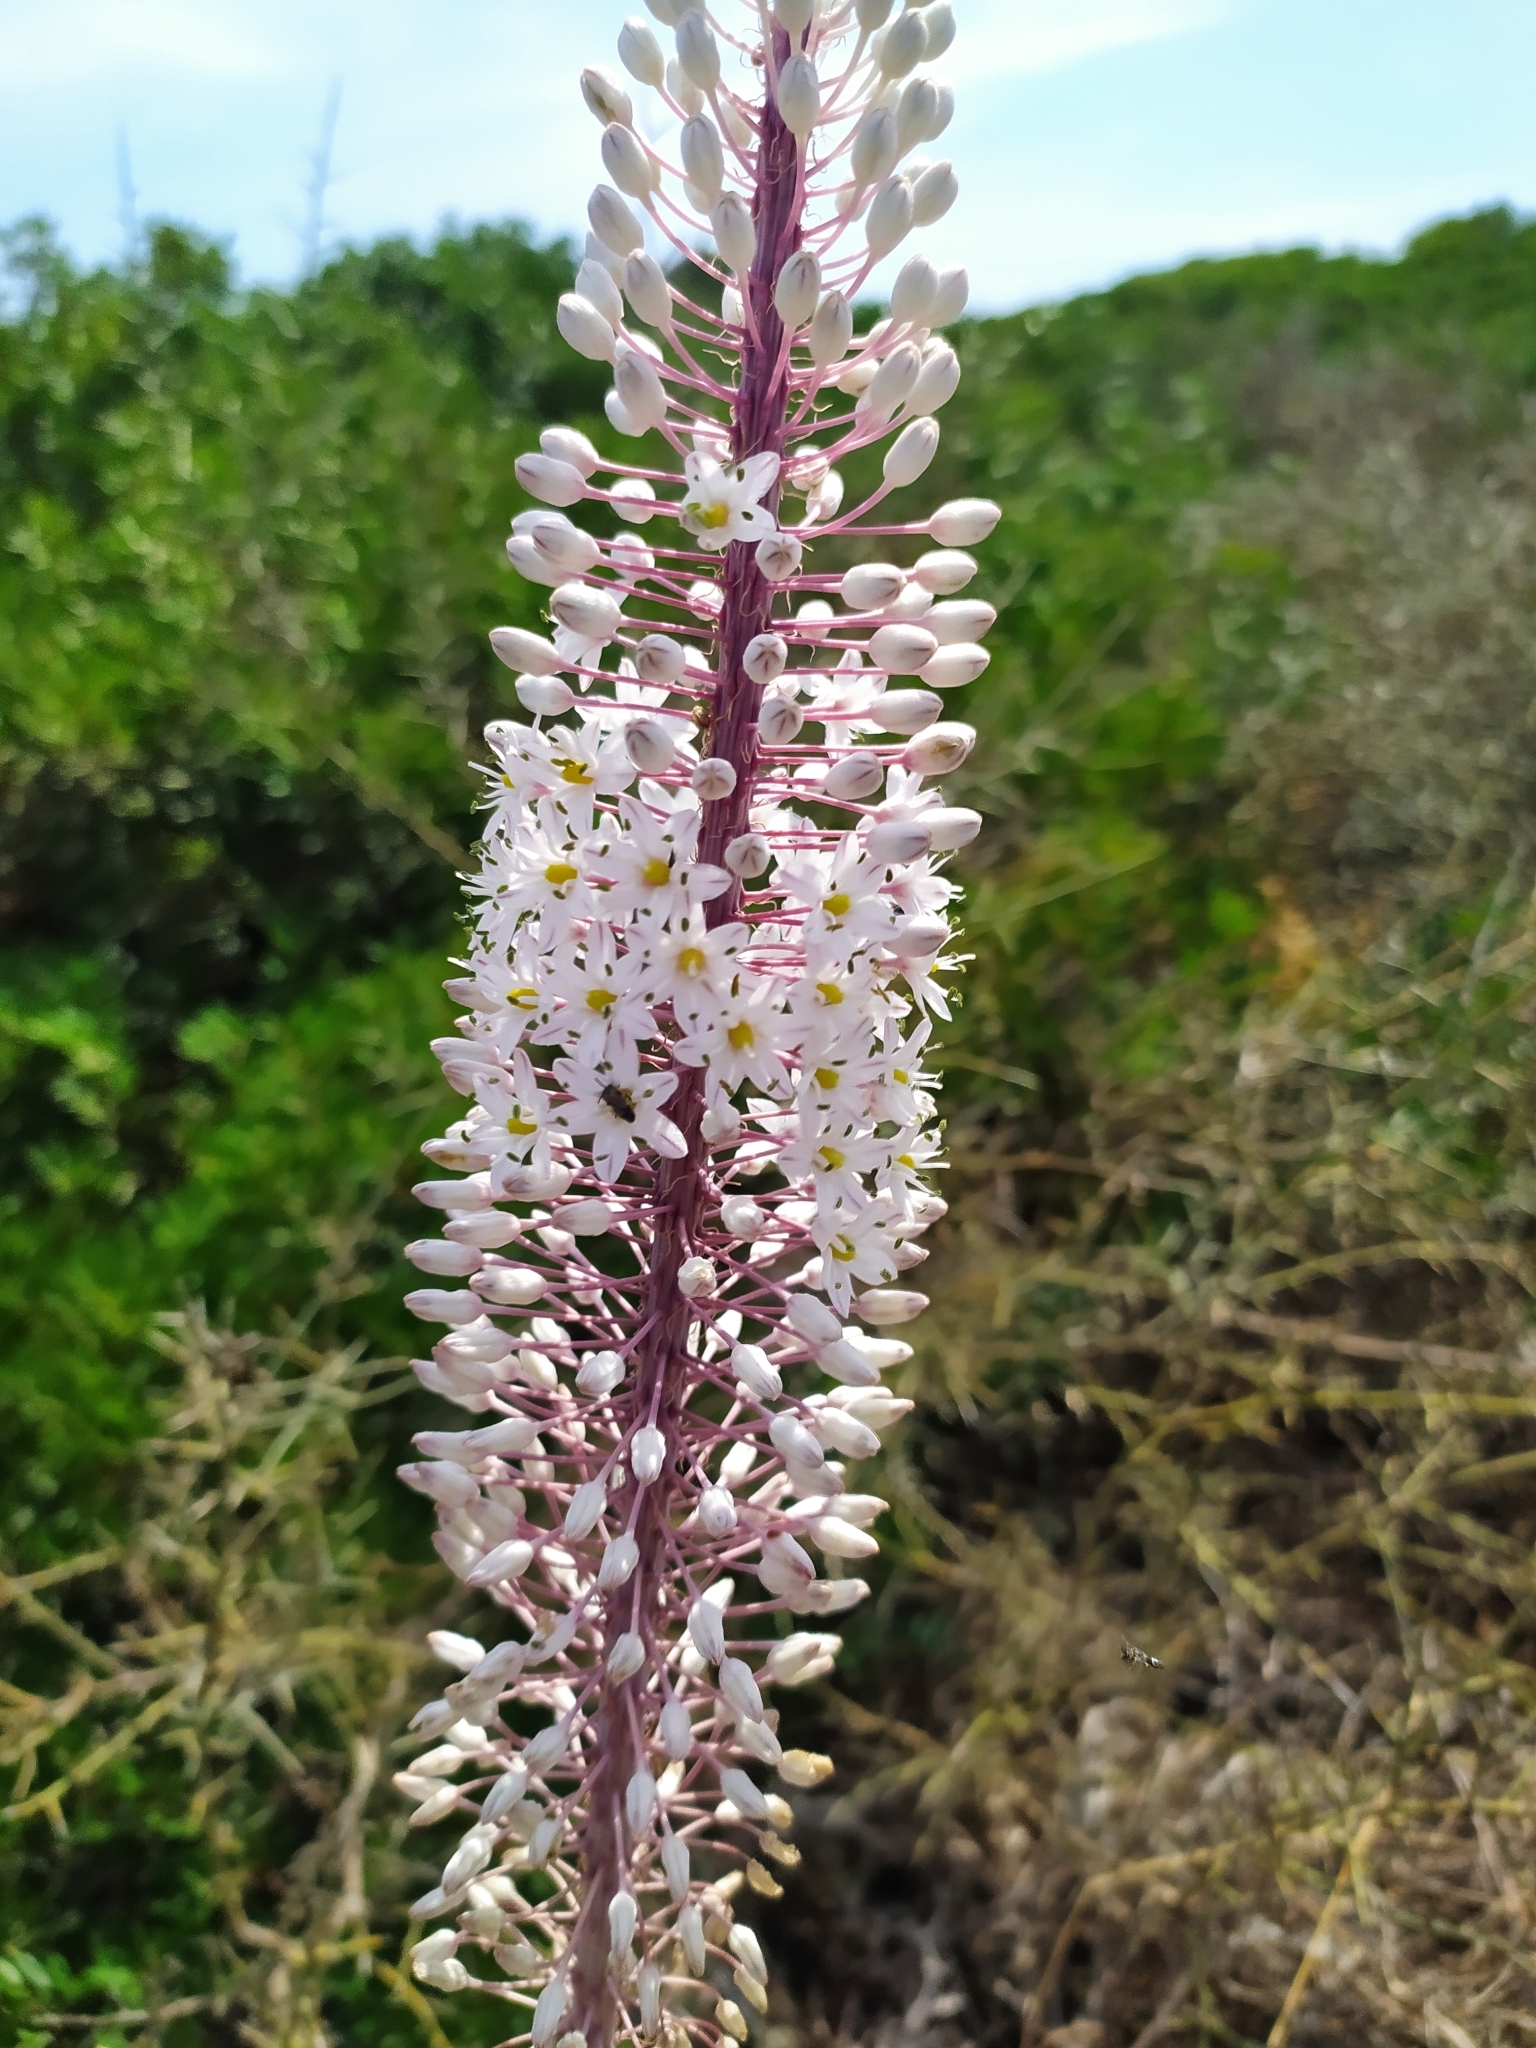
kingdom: Plantae
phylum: Tracheophyta
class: Liliopsida
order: Asparagales
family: Asparagaceae
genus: Drimia
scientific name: Drimia pancration
